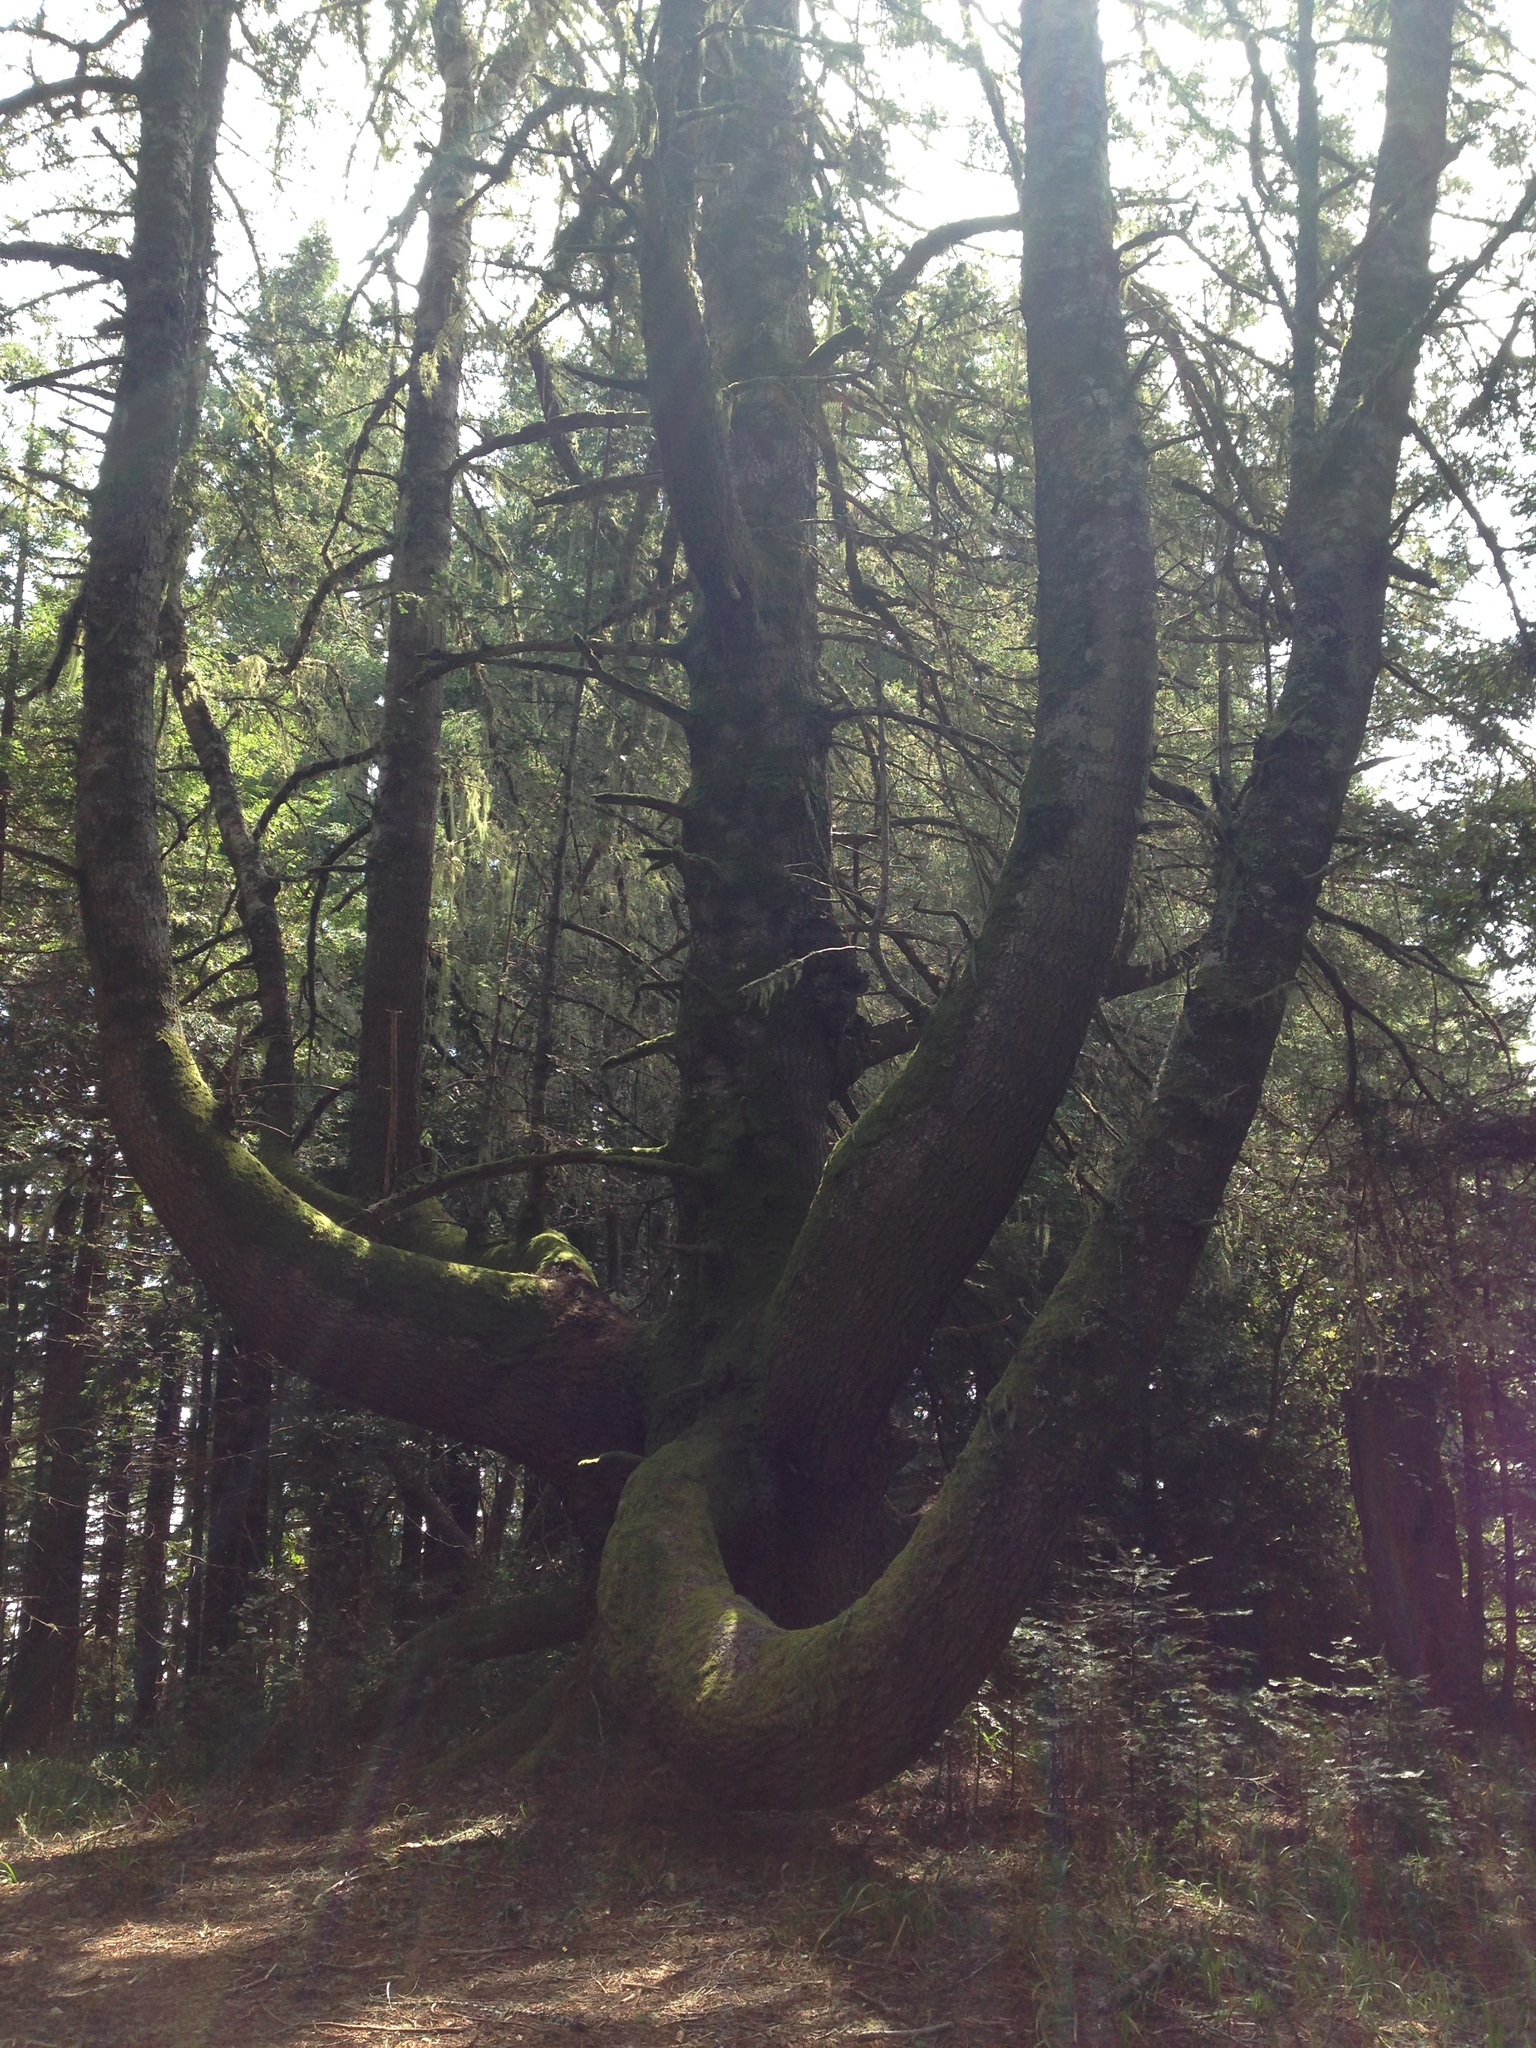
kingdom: Plantae
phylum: Tracheophyta
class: Pinopsida
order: Pinales
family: Pinaceae
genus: Pseudotsuga
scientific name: Pseudotsuga menziesii
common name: Douglas fir
